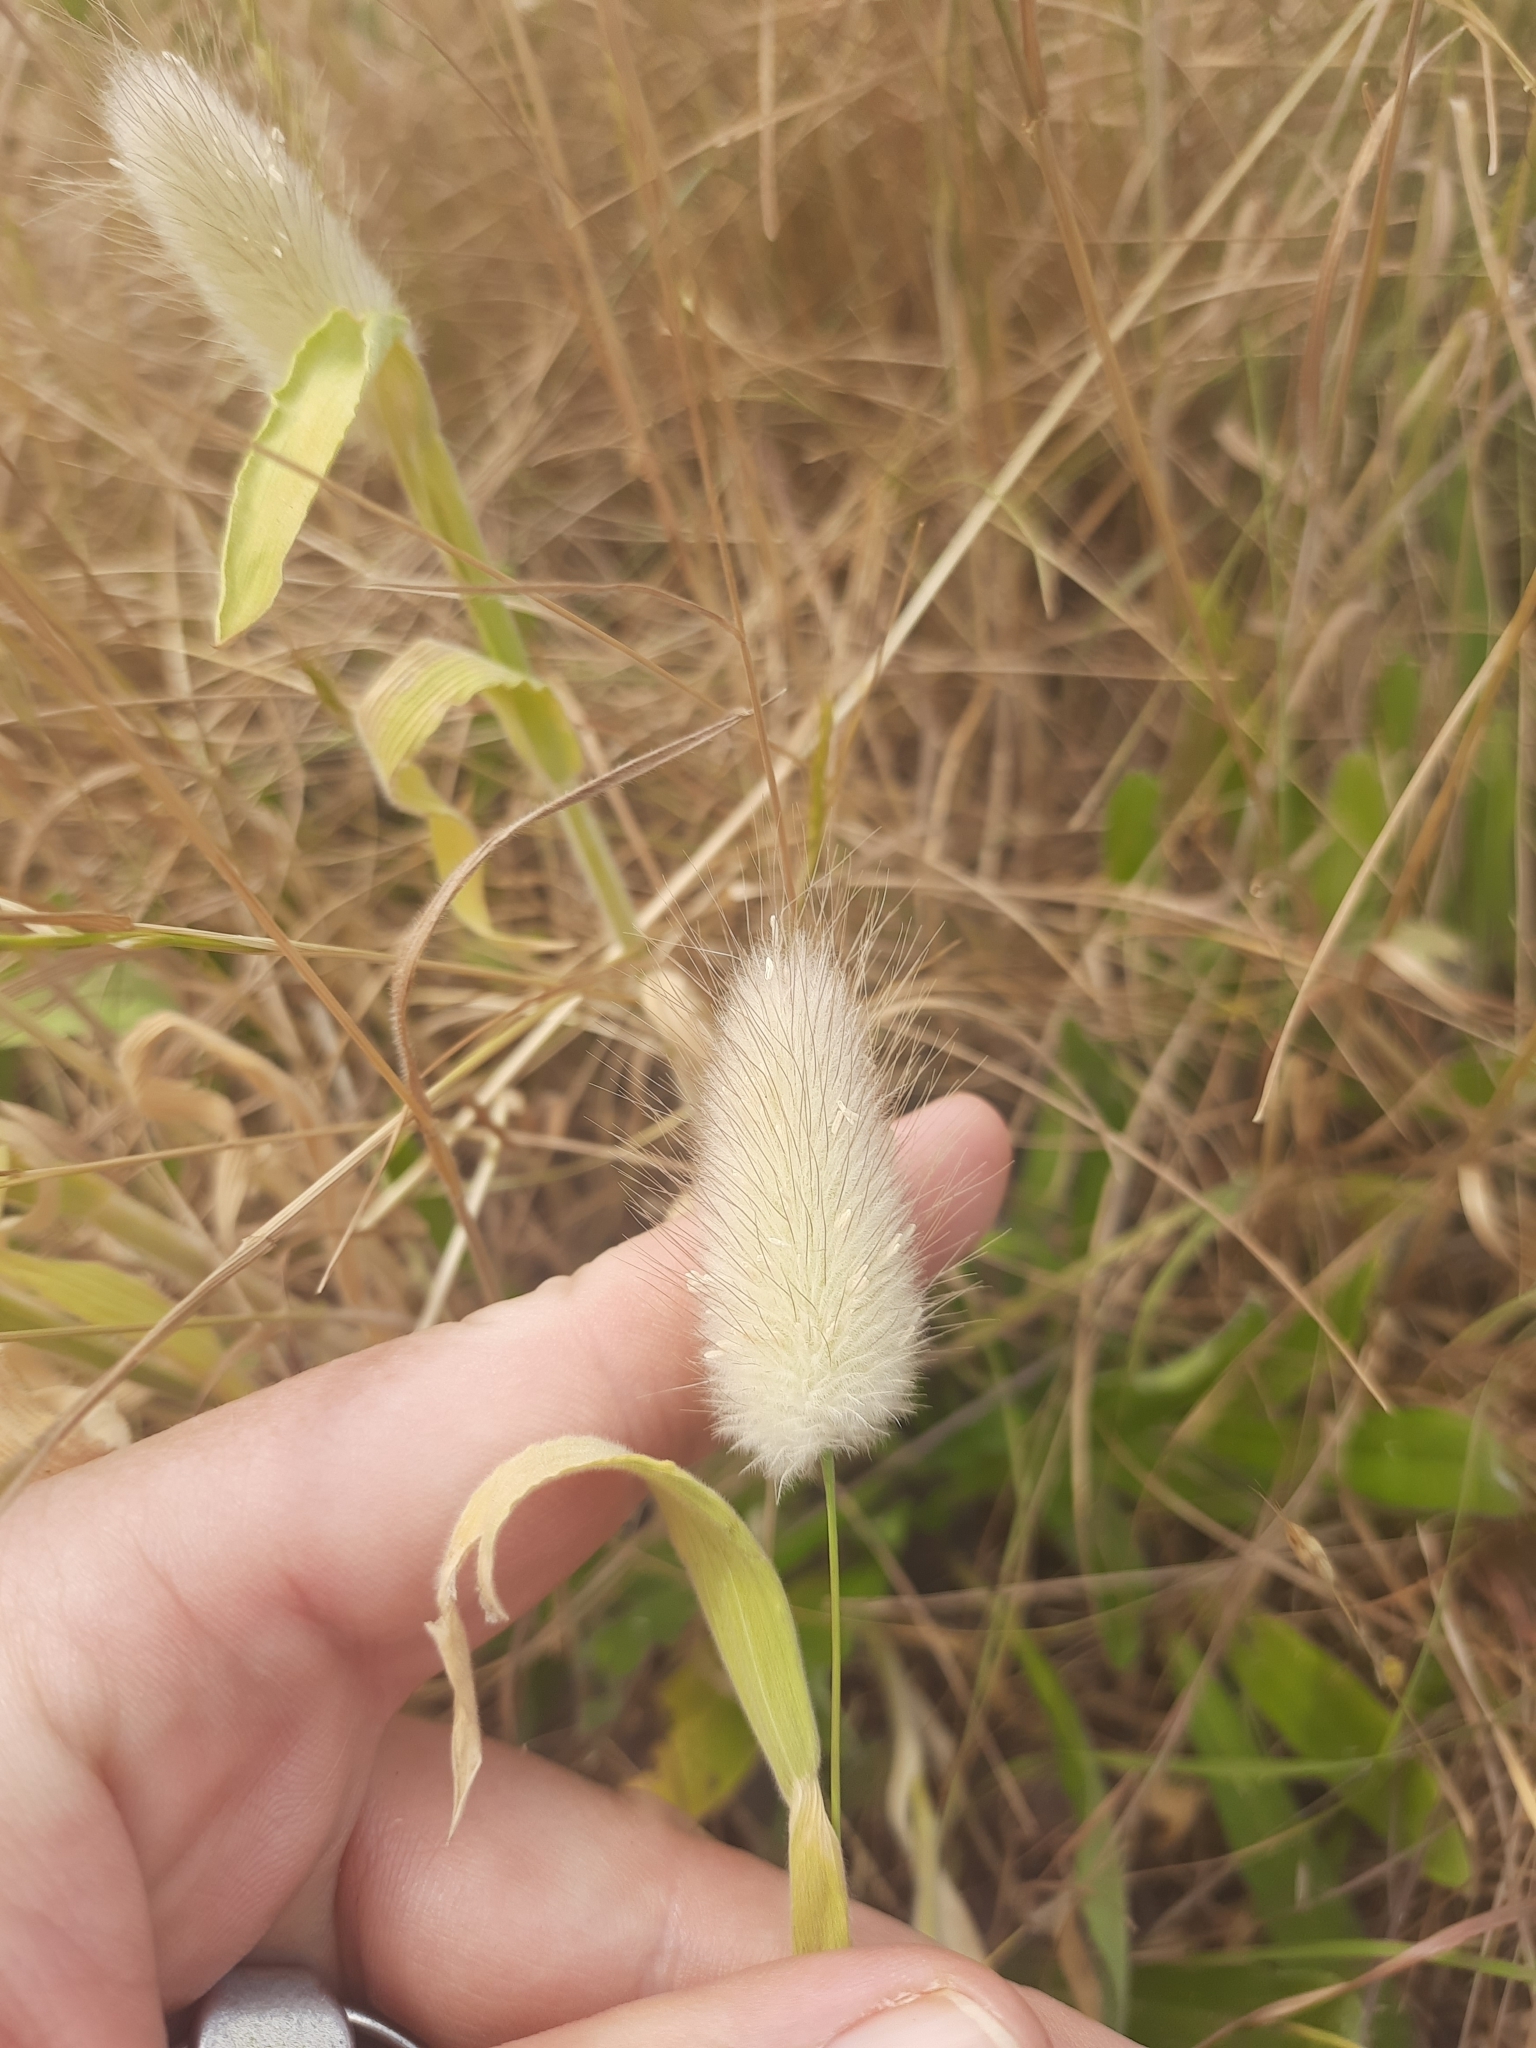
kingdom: Plantae
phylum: Tracheophyta
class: Liliopsida
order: Poales
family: Poaceae
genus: Lagurus
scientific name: Lagurus ovatus
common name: Hare's-tail
